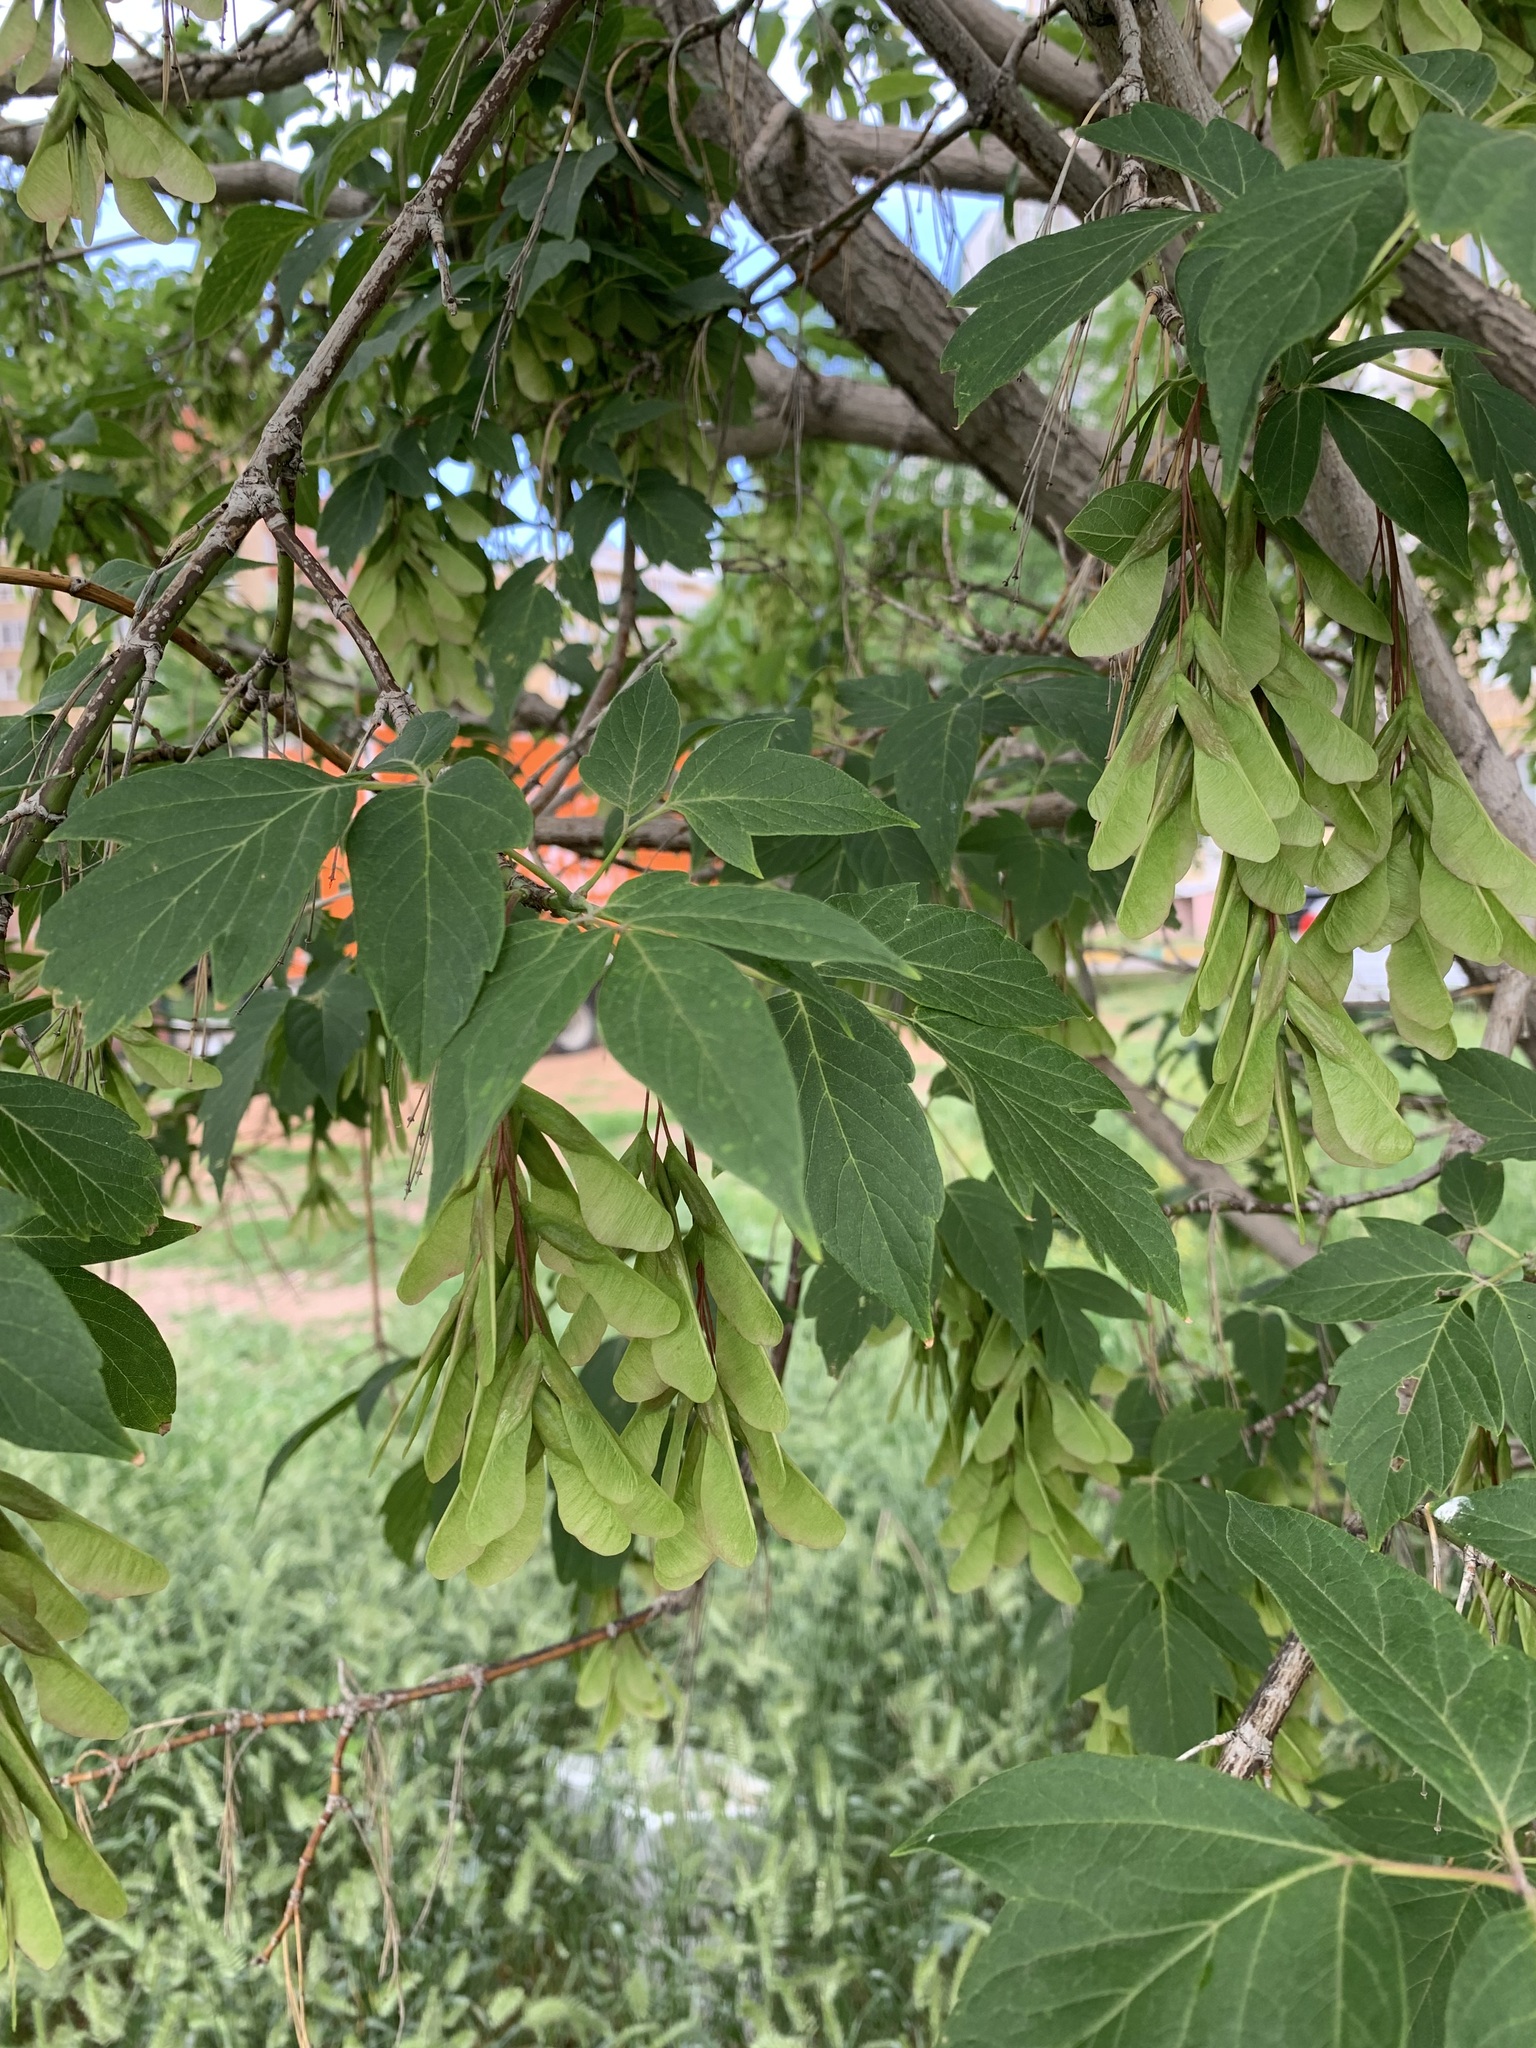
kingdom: Plantae
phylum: Tracheophyta
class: Magnoliopsida
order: Sapindales
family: Sapindaceae
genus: Acer
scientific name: Acer negundo
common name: Ashleaf maple
